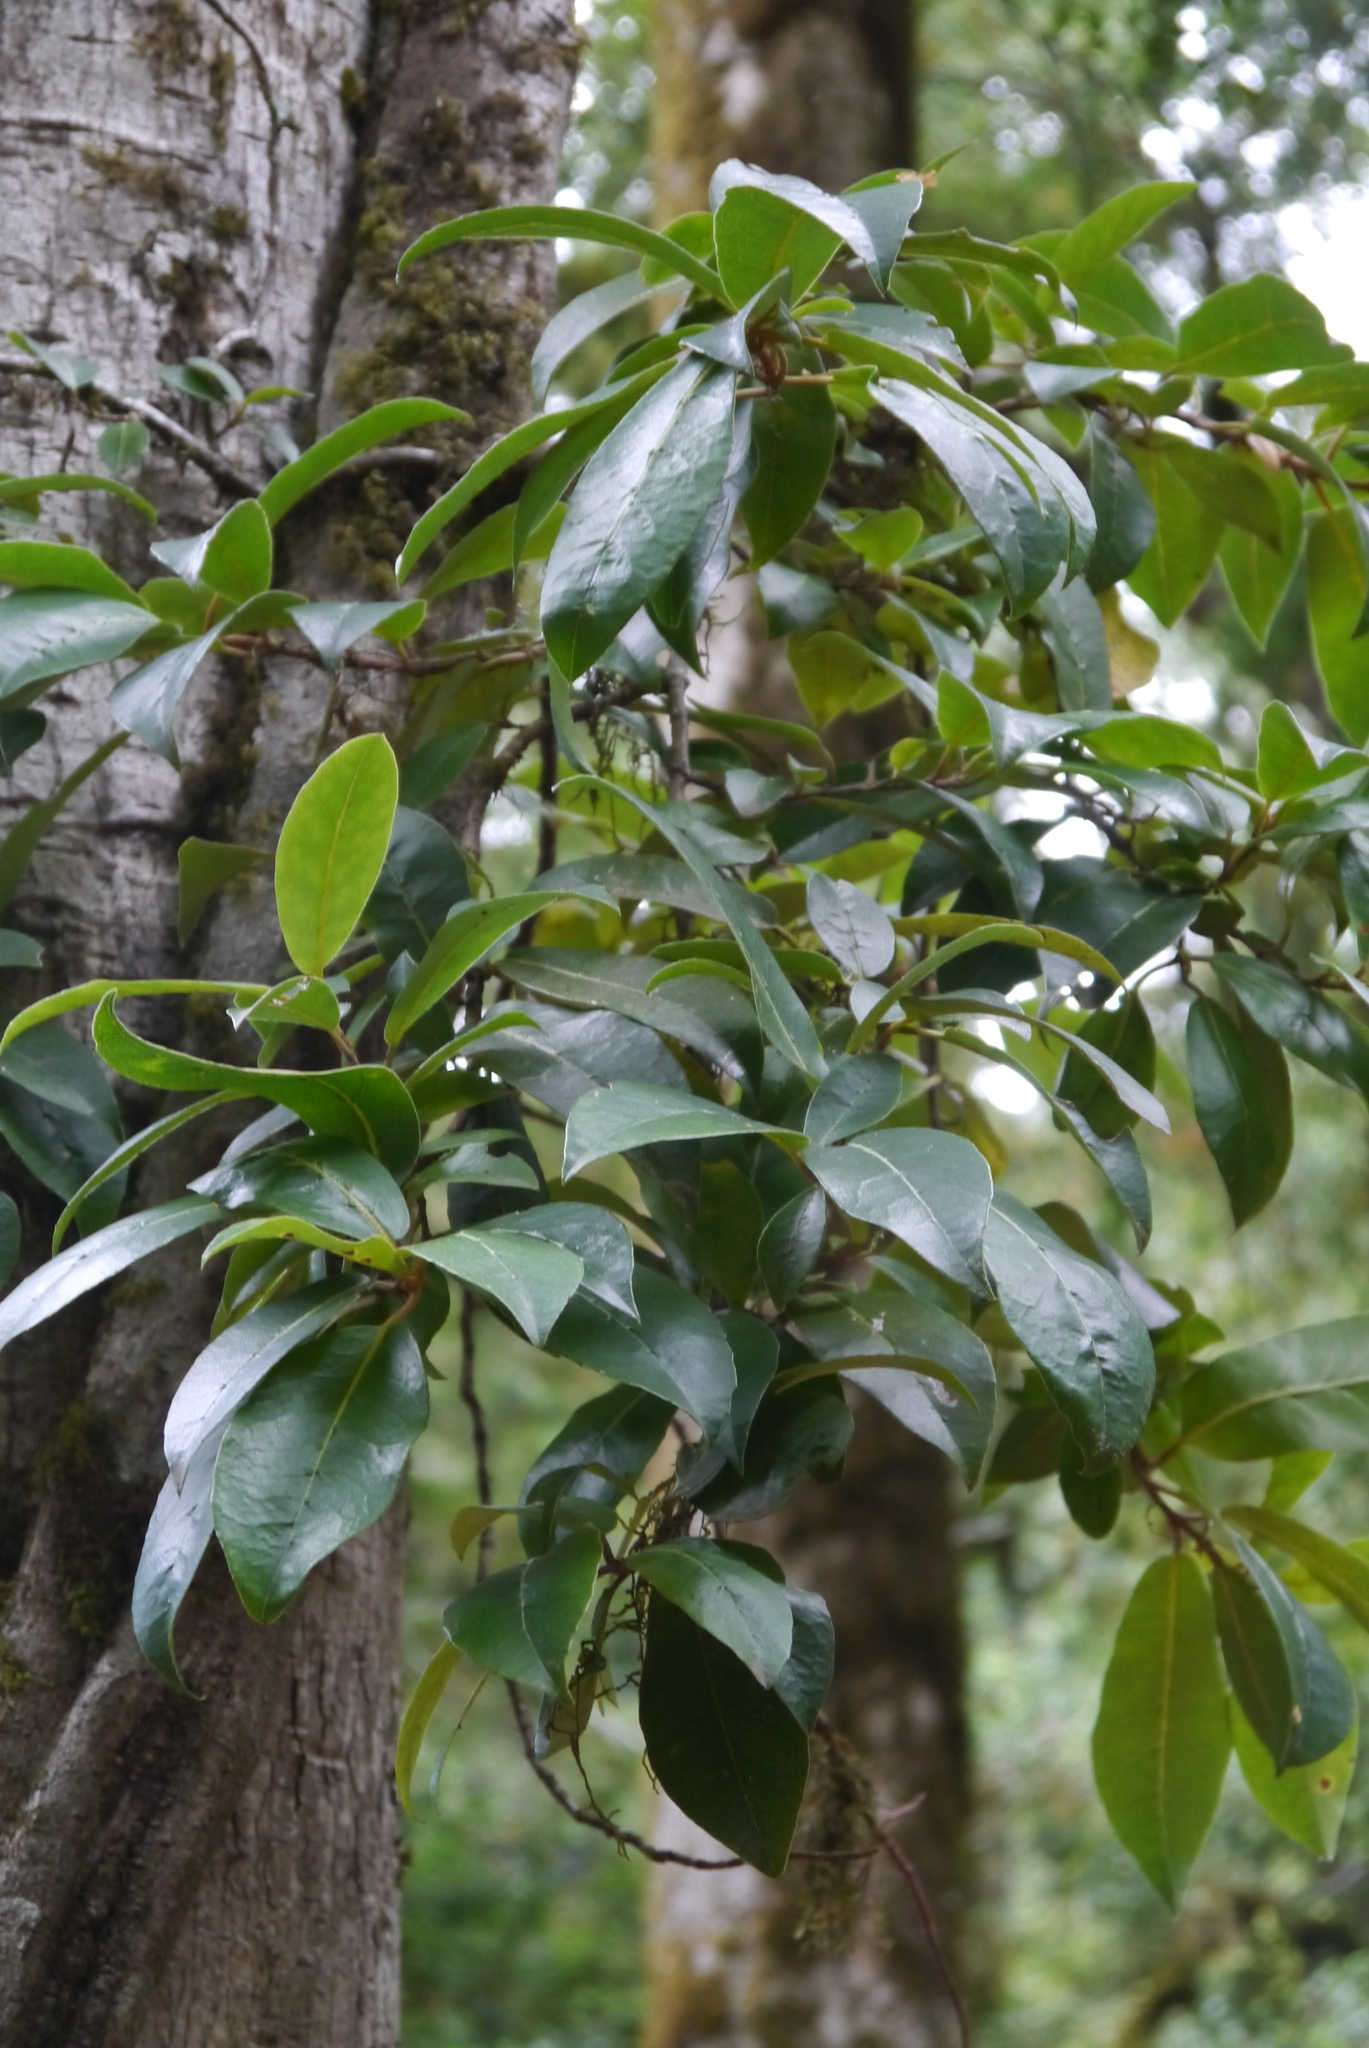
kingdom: Plantae
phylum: Tracheophyta
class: Magnoliopsida
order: Cornales
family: Hydrangeaceae
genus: Hydrangea
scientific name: Hydrangea serratifolia
